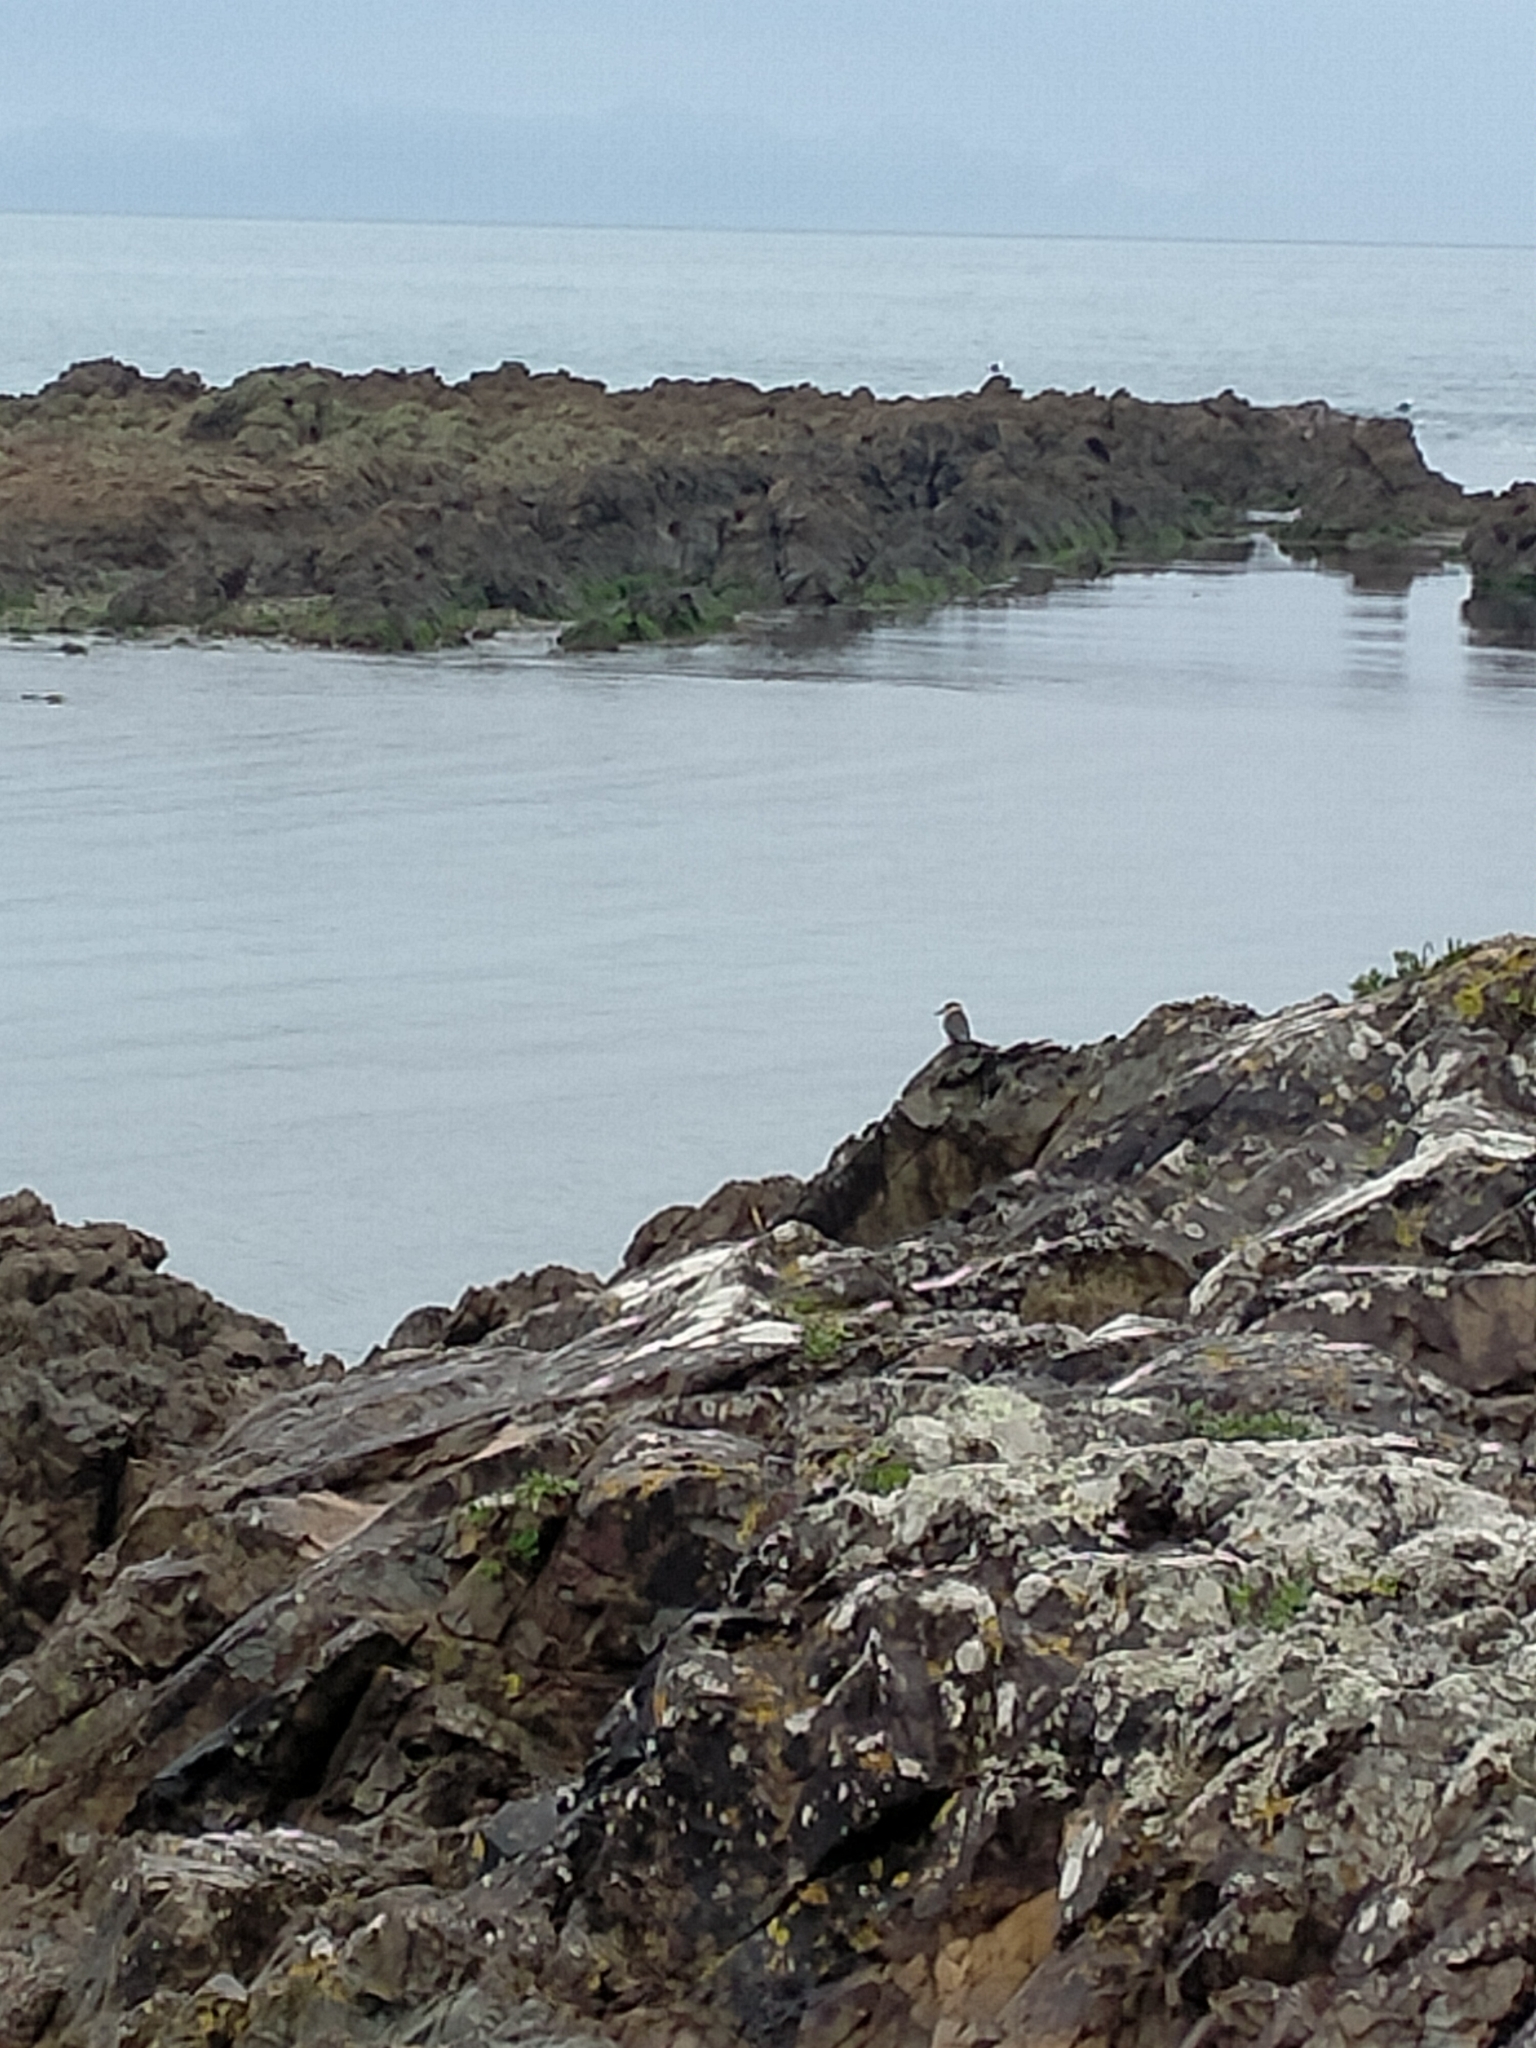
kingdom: Animalia
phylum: Chordata
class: Aves
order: Coraciiformes
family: Alcedinidae
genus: Todiramphus
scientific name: Todiramphus sanctus
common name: Sacred kingfisher
